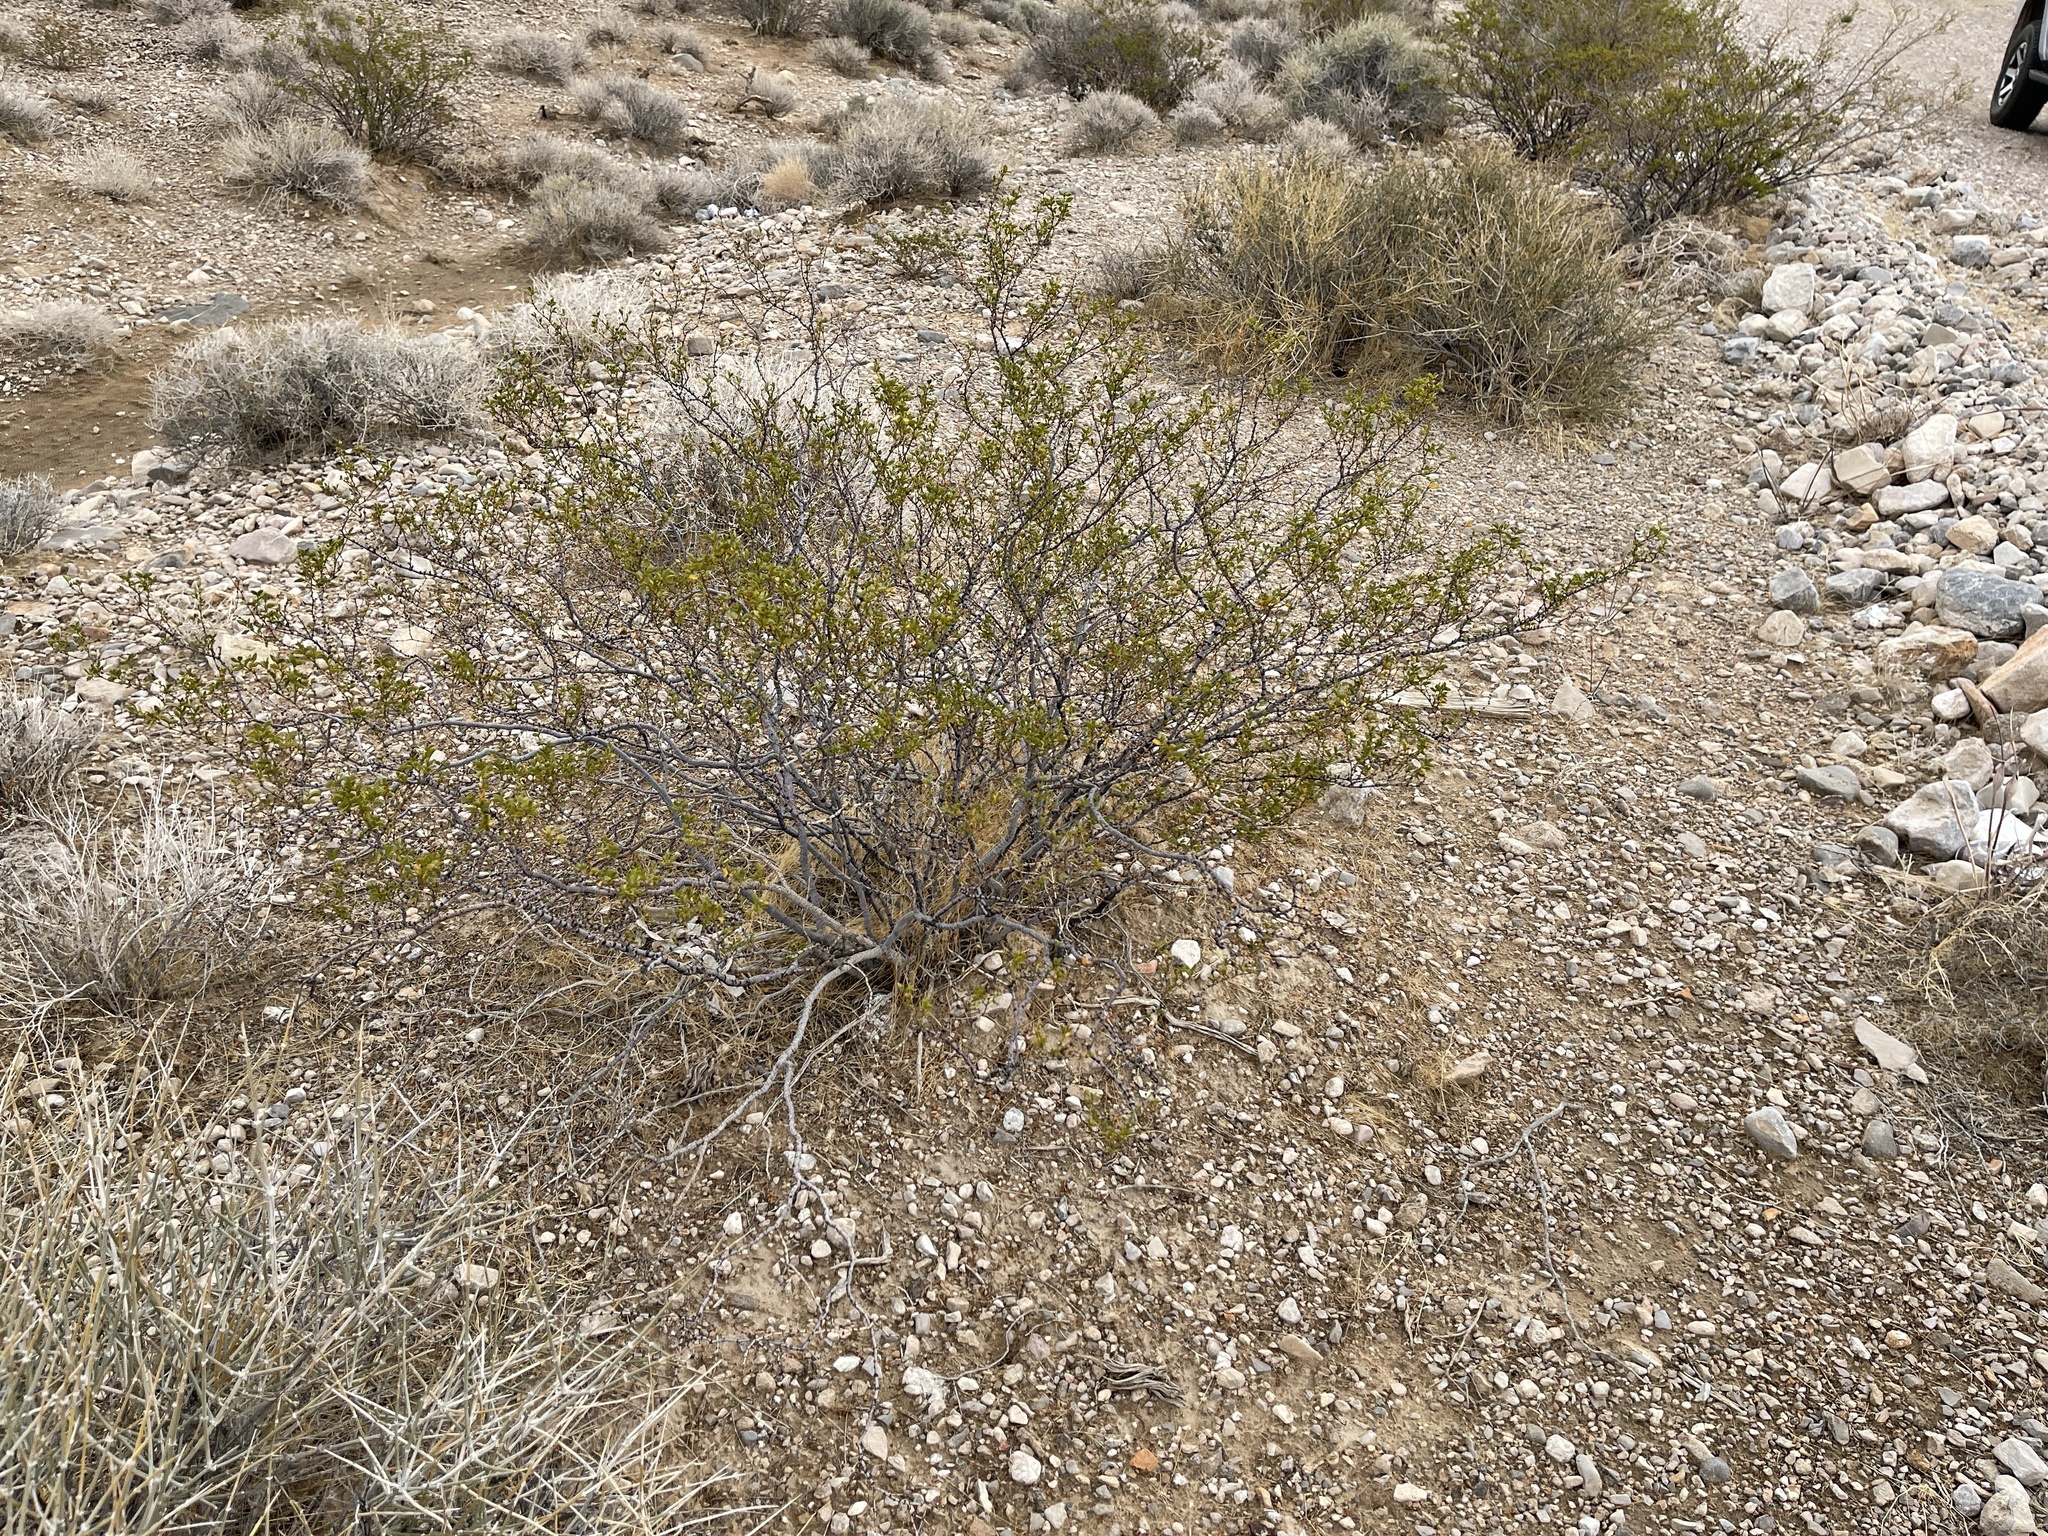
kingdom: Plantae
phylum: Tracheophyta
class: Magnoliopsida
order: Zygophyllales
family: Zygophyllaceae
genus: Larrea
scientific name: Larrea tridentata
